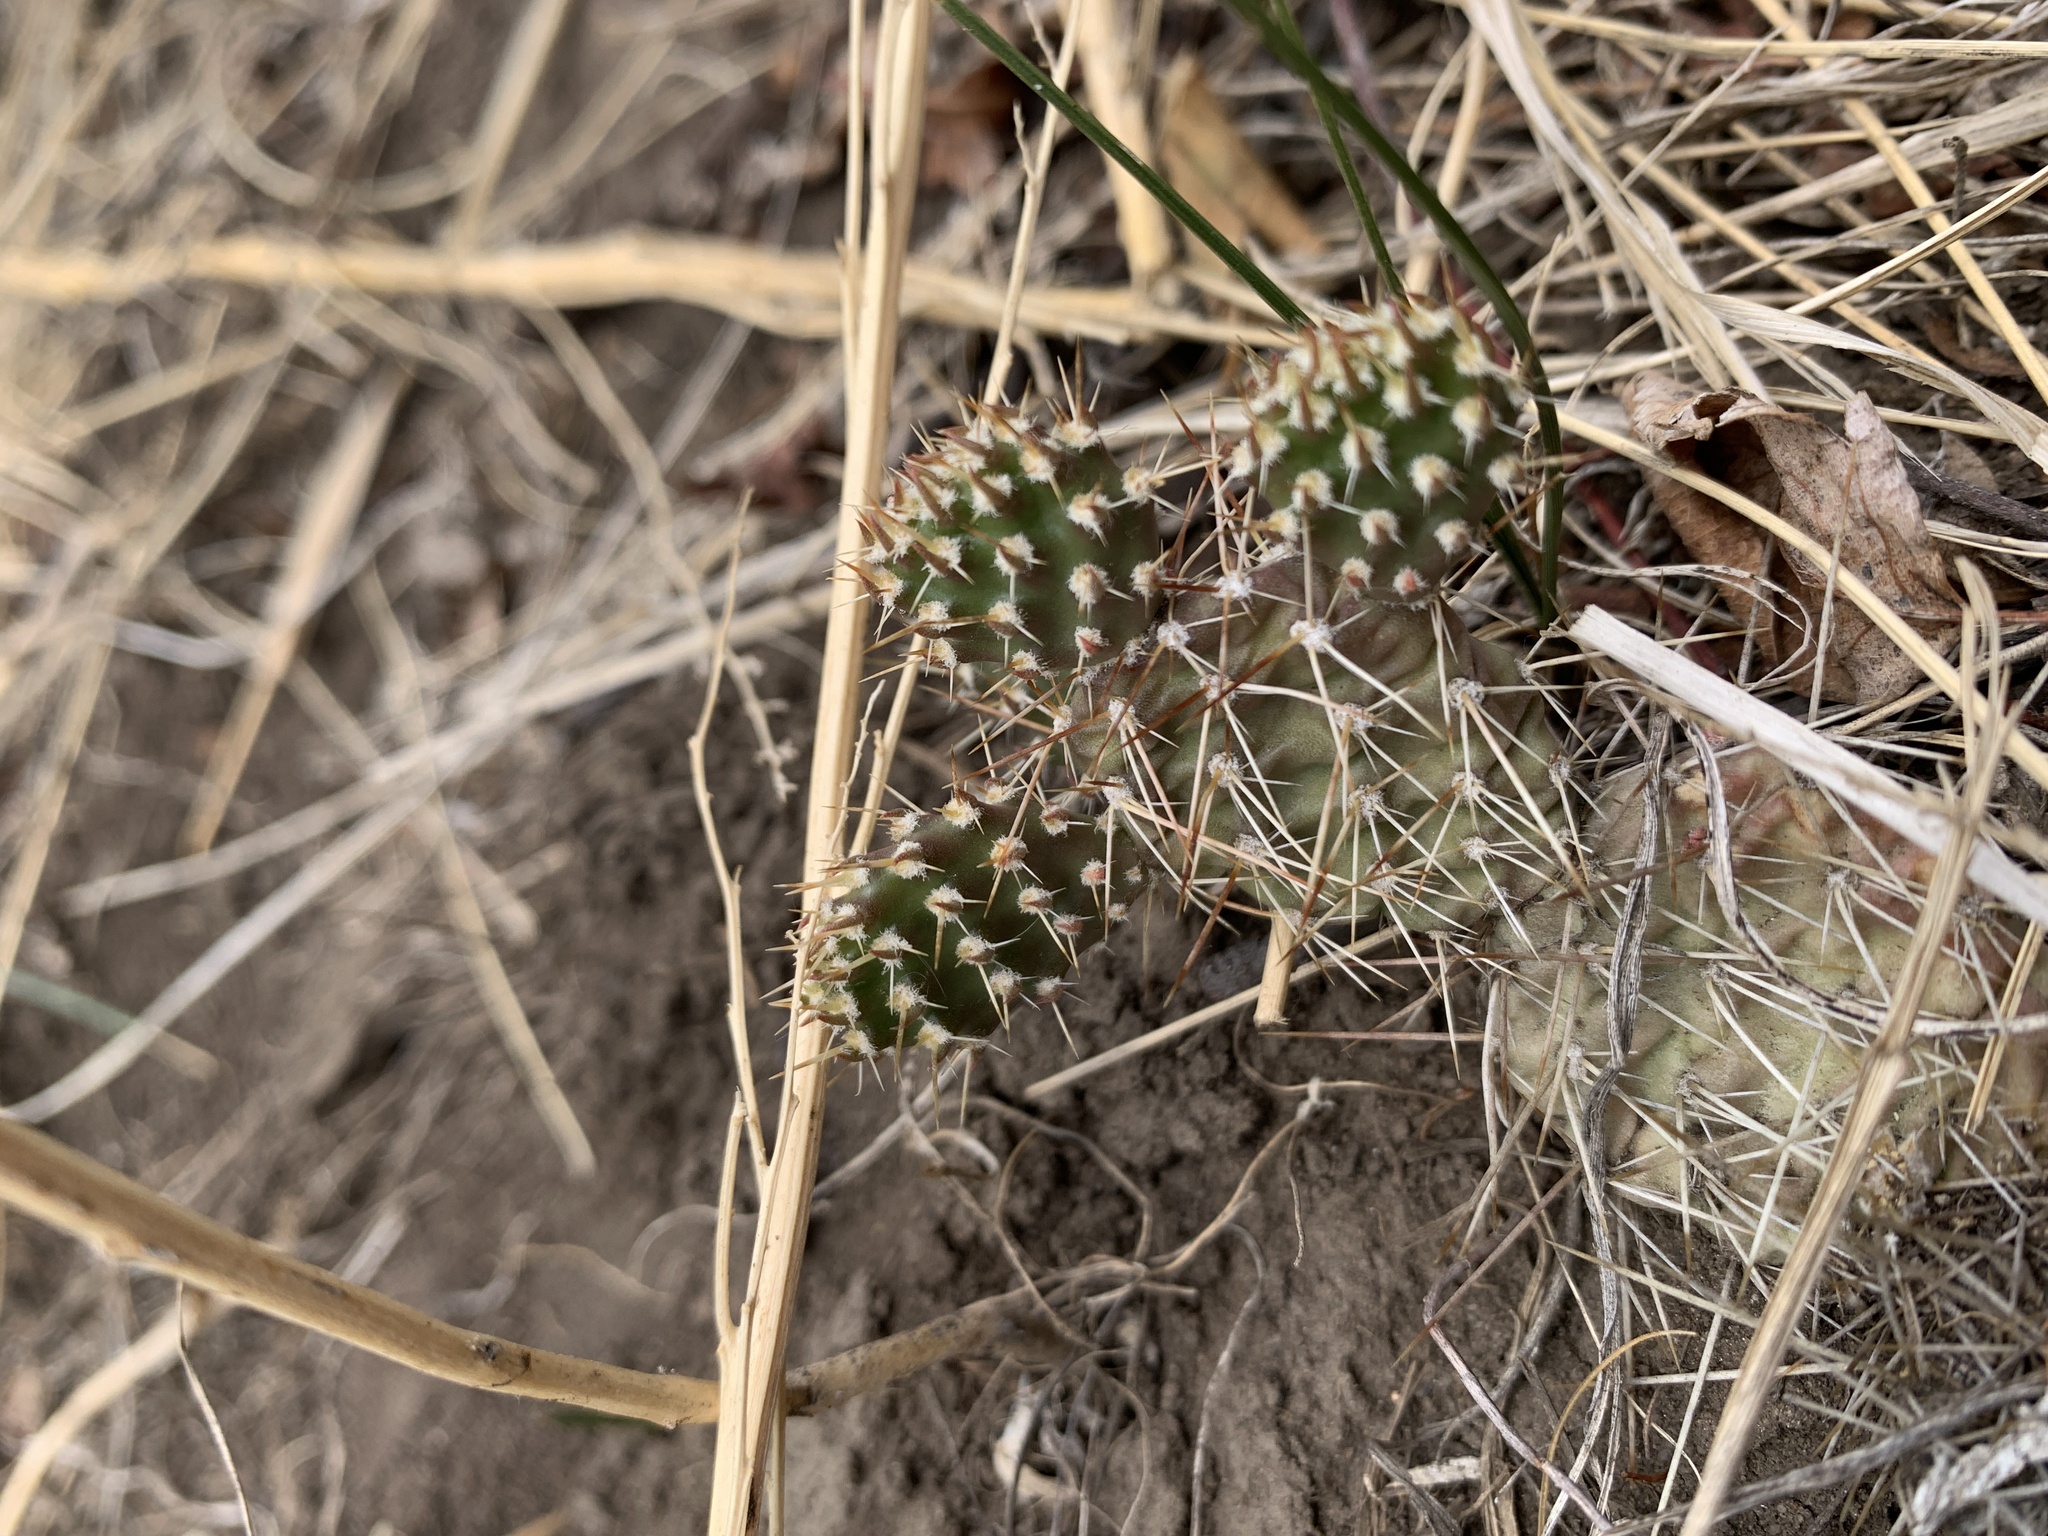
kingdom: Plantae
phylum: Tracheophyta
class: Magnoliopsida
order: Caryophyllales
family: Cactaceae
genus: Opuntia
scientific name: Opuntia fragilis
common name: Brittle cactus
